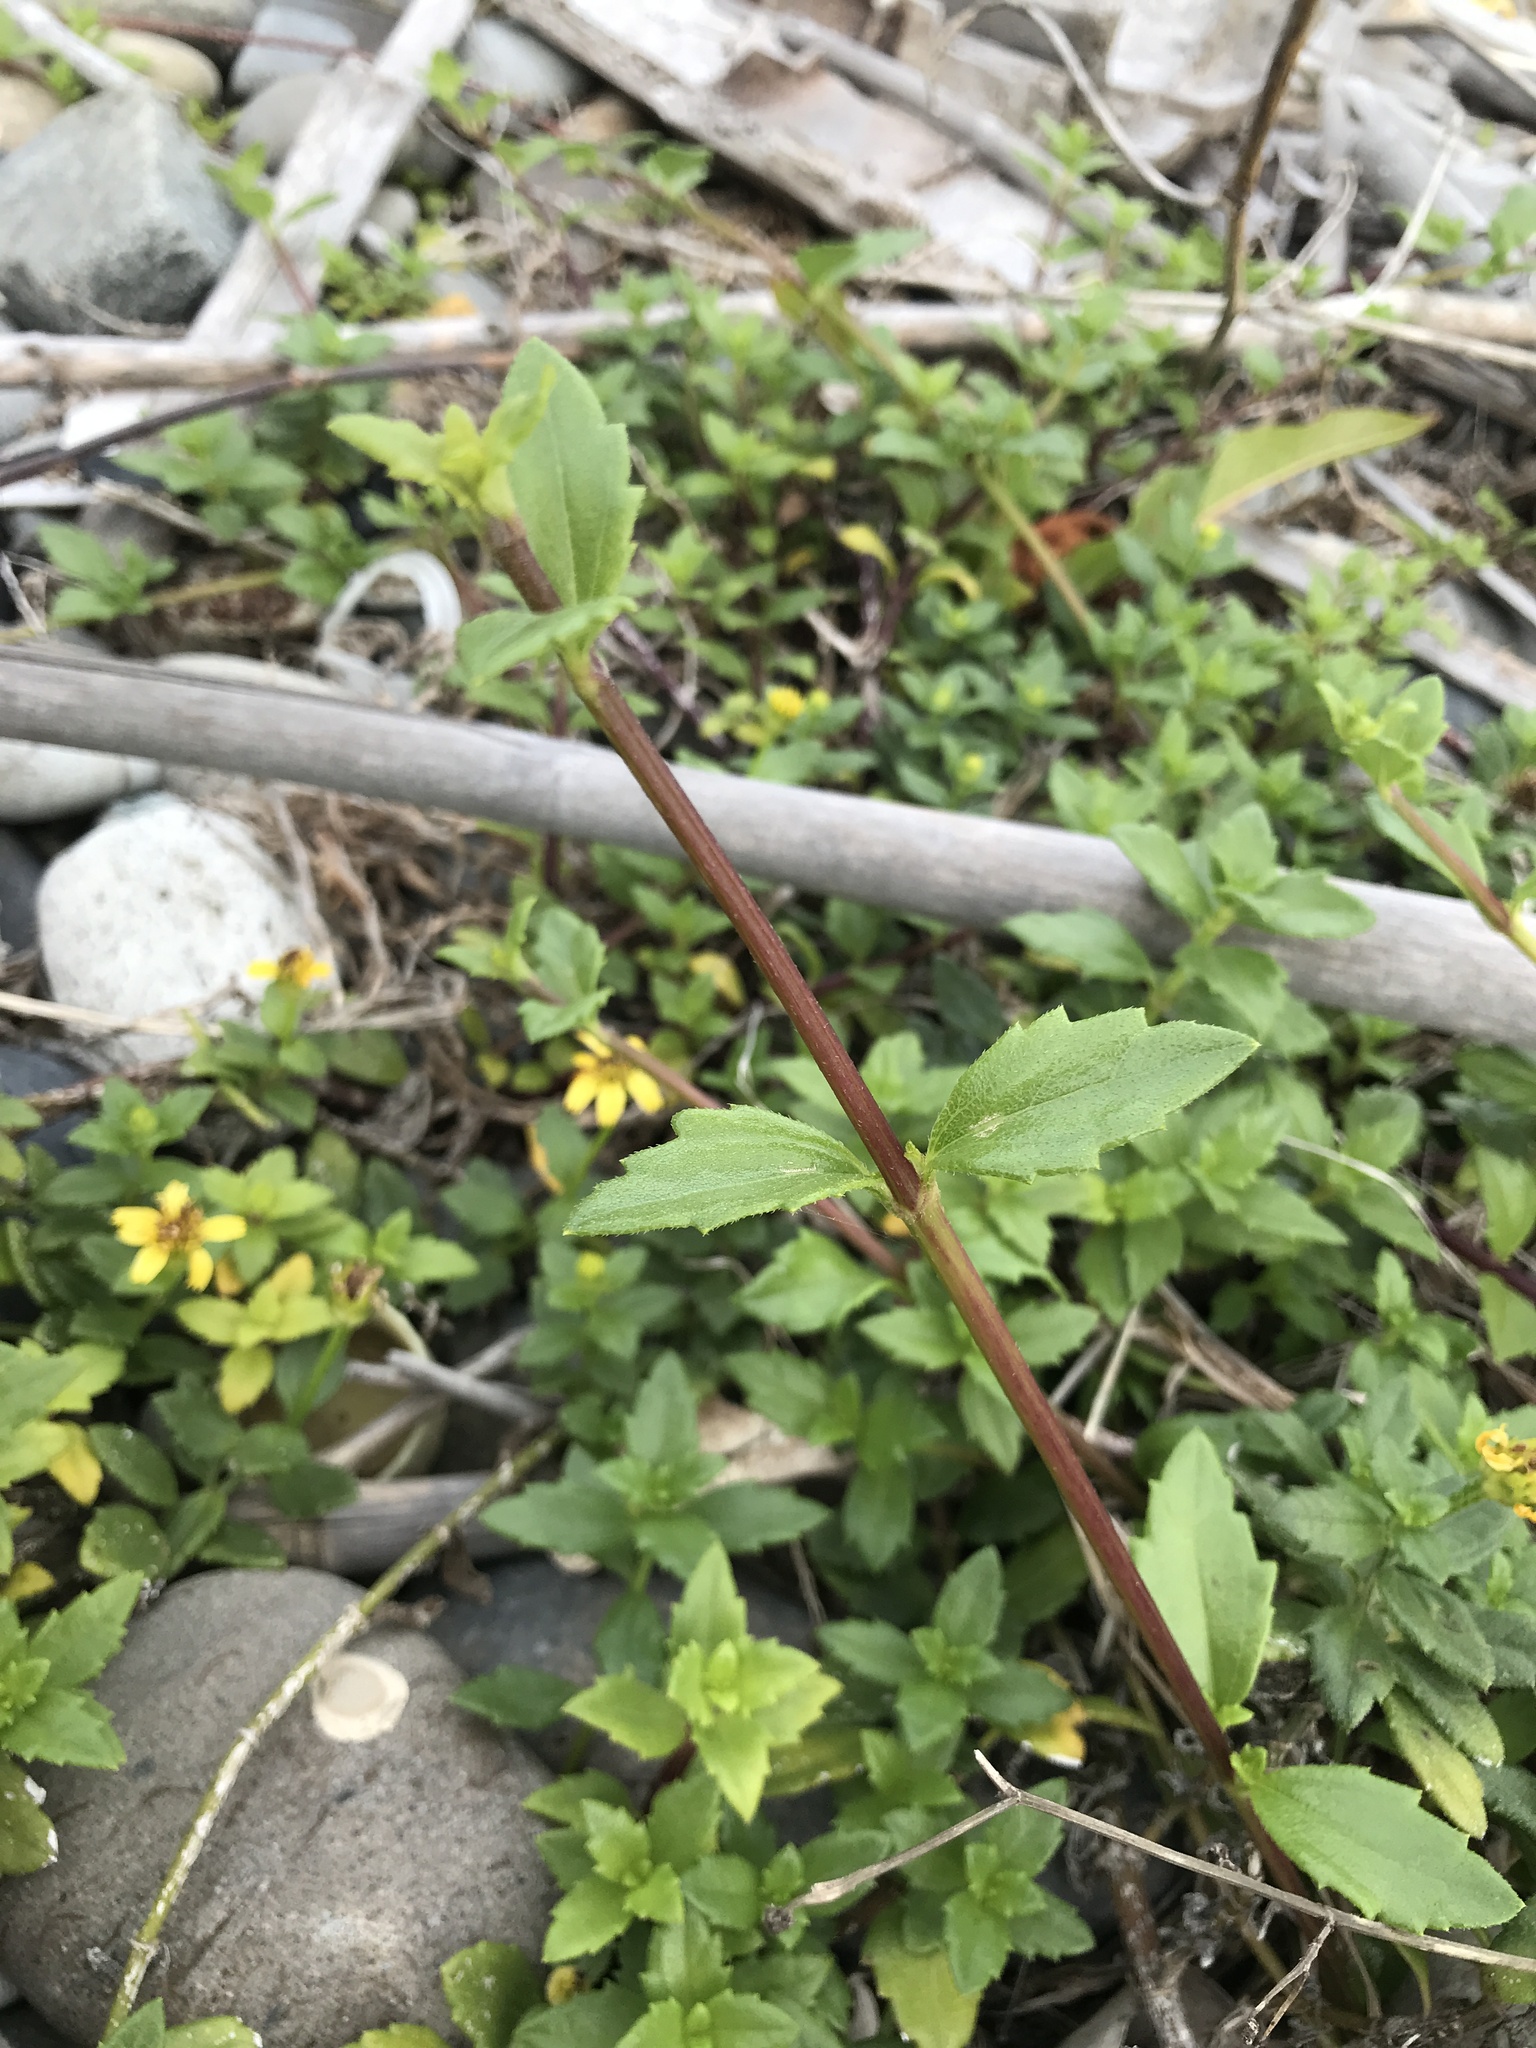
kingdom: Plantae
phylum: Tracheophyta
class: Magnoliopsida
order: Asterales
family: Asteraceae
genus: Melanthera
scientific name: Melanthera prostrata
